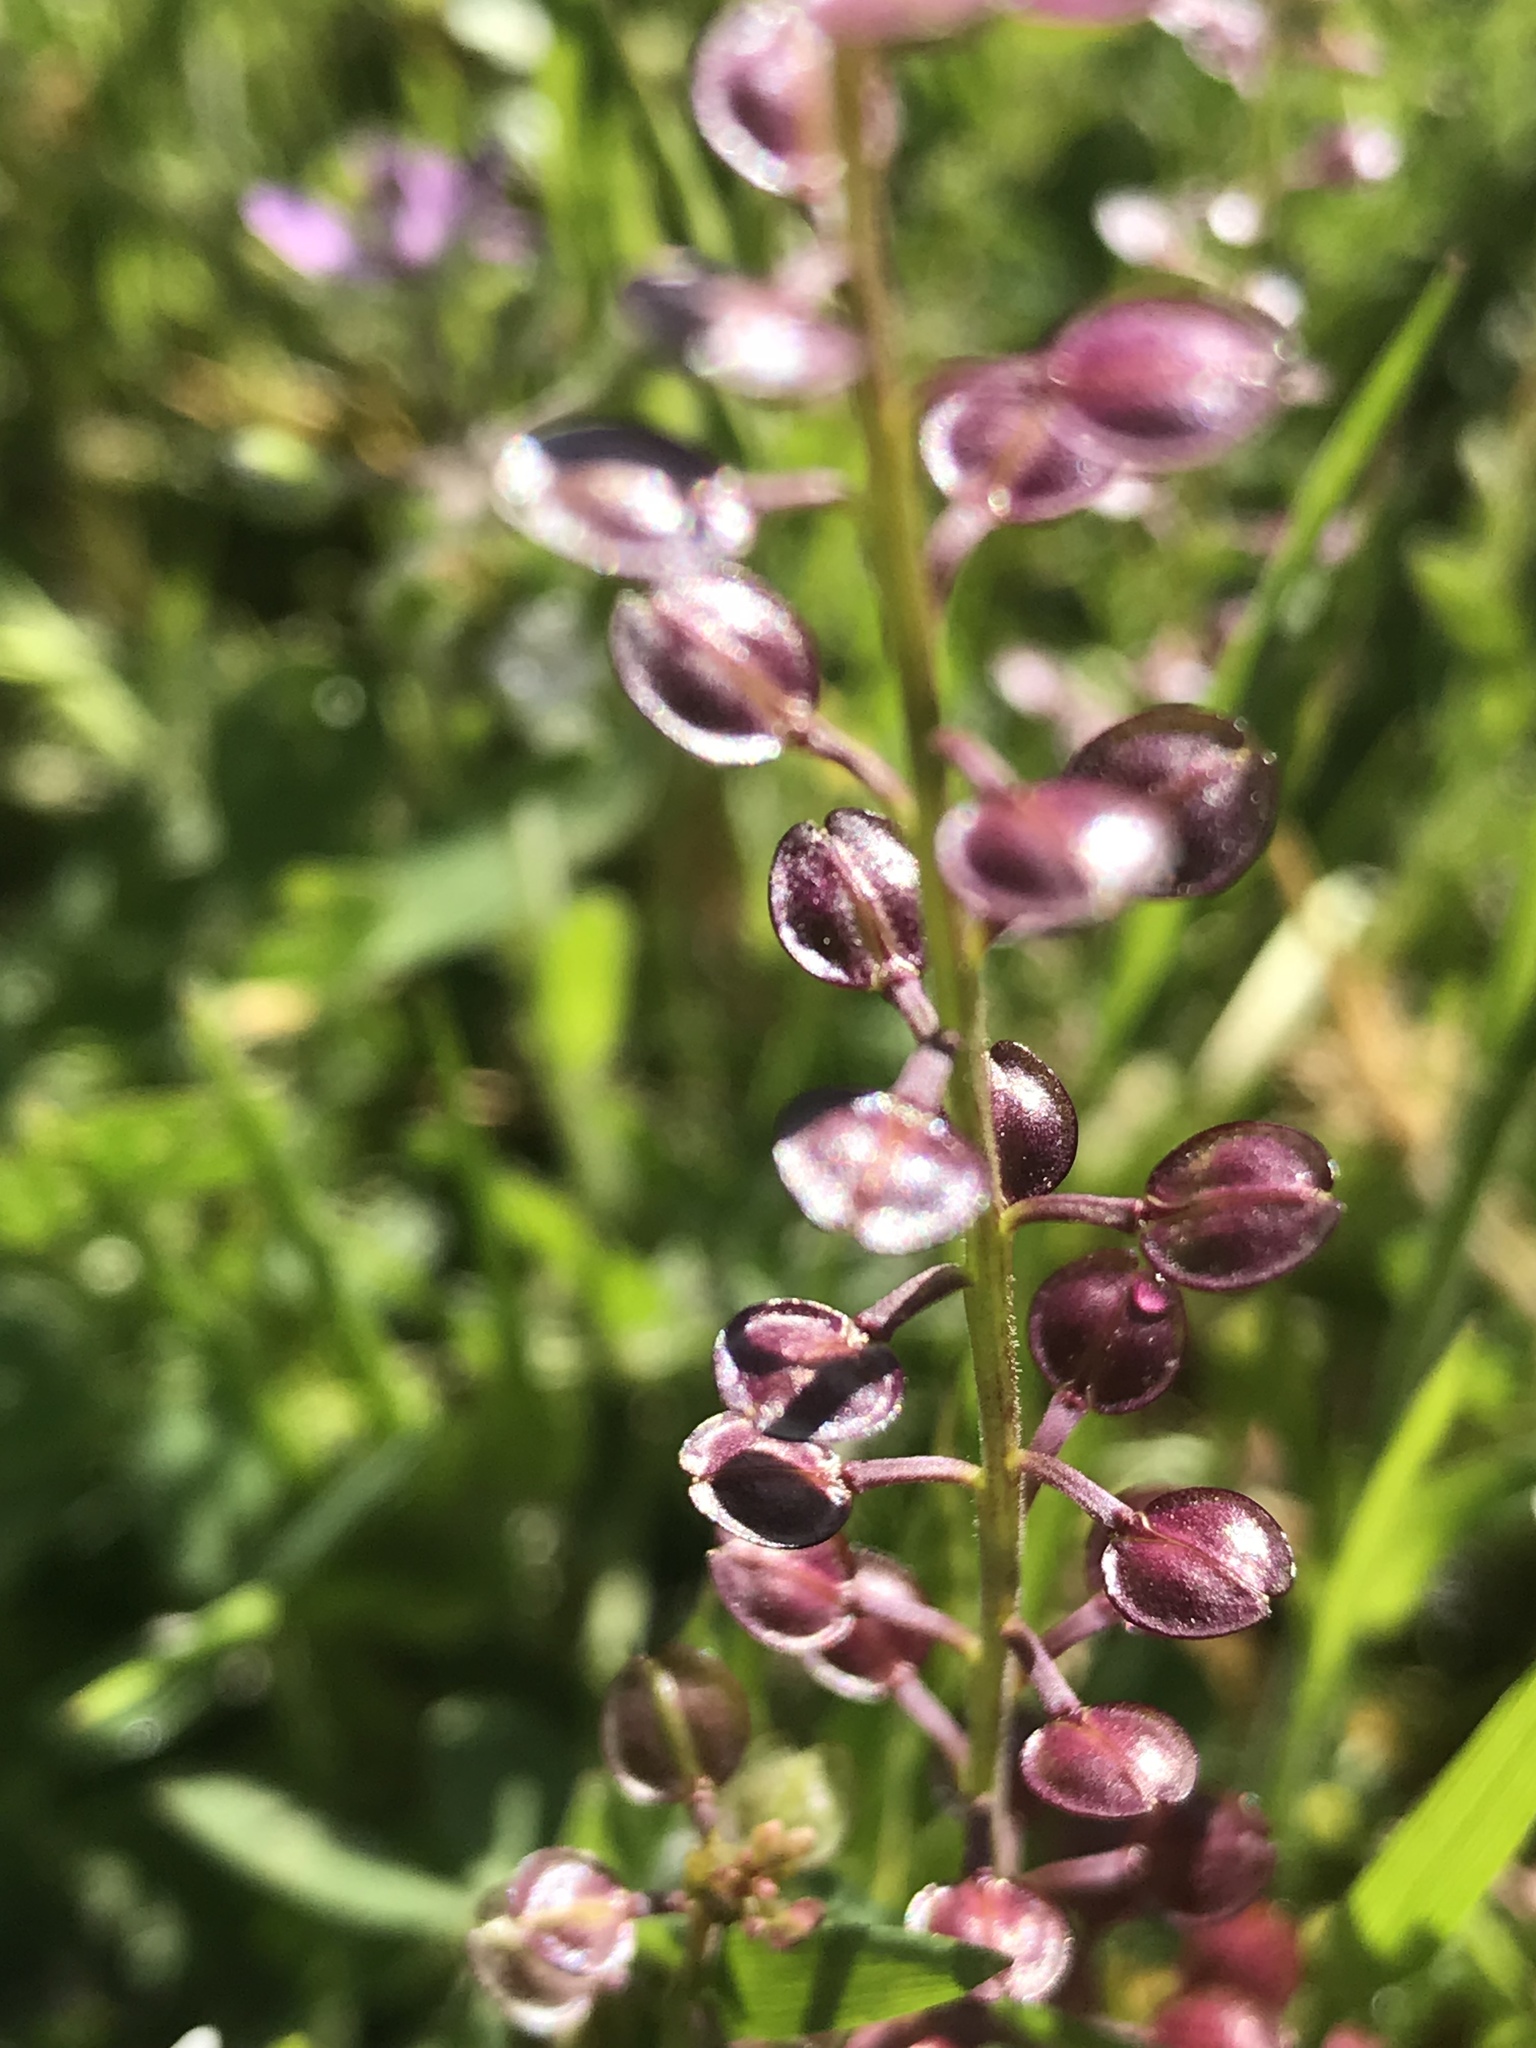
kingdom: Plantae
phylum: Tracheophyta
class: Magnoliopsida
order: Brassicales
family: Brassicaceae
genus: Lepidium
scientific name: Lepidium nitidum
